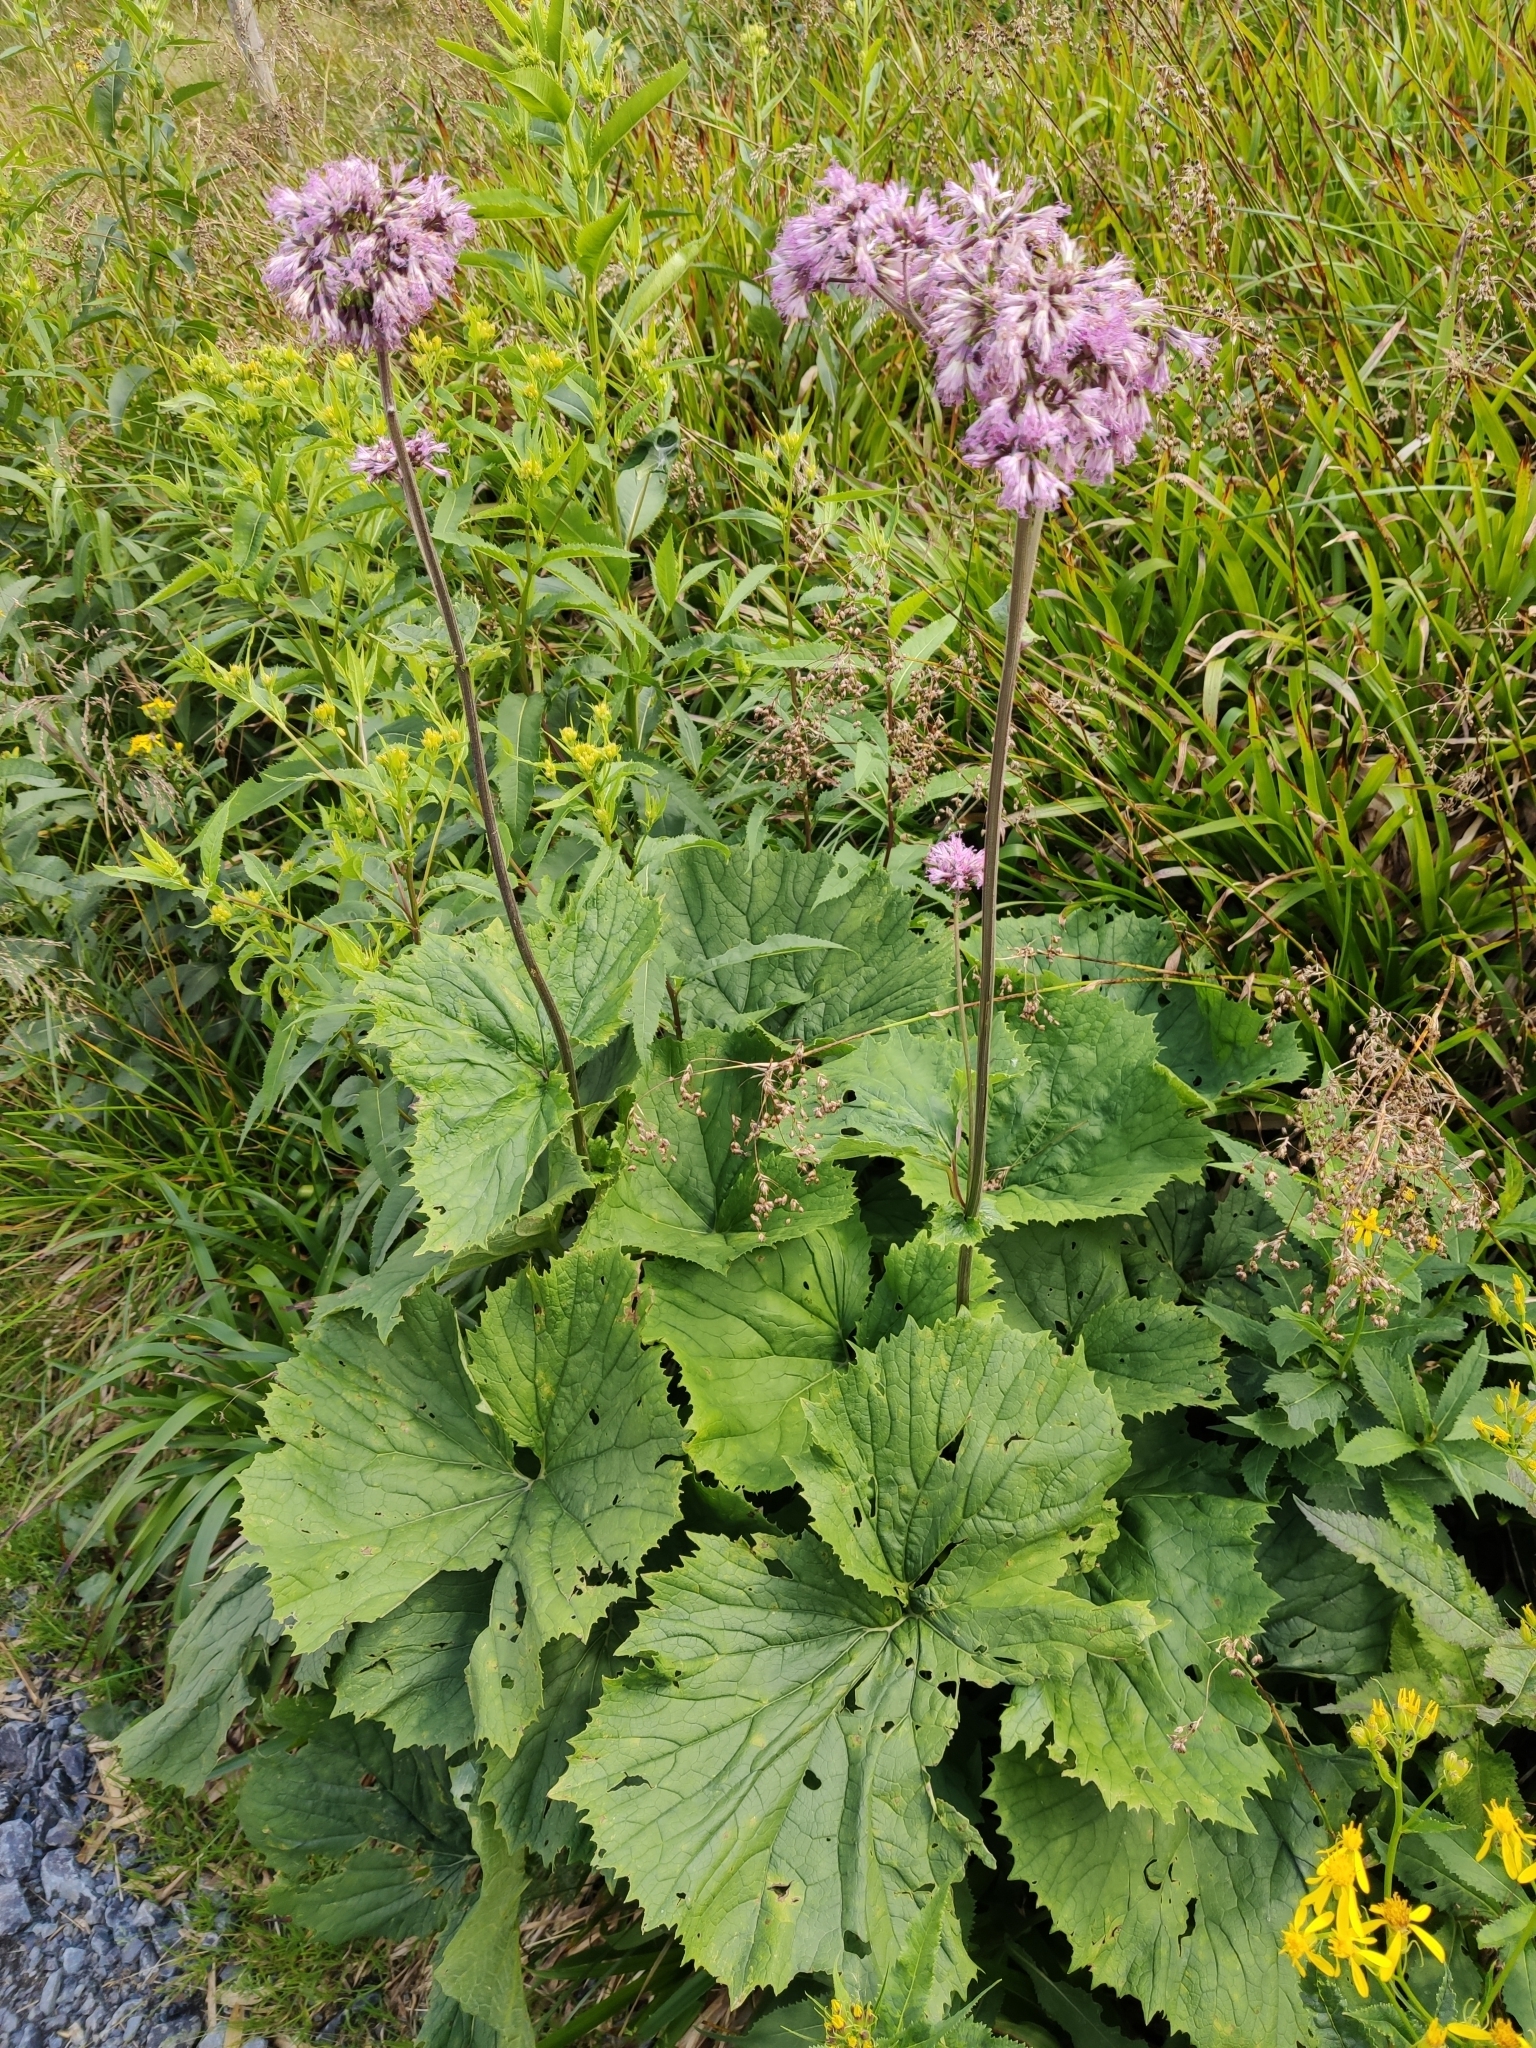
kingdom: Plantae
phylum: Tracheophyta
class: Magnoliopsida
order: Asterales
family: Asteraceae
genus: Adenostyles
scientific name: Adenostyles alliariae
